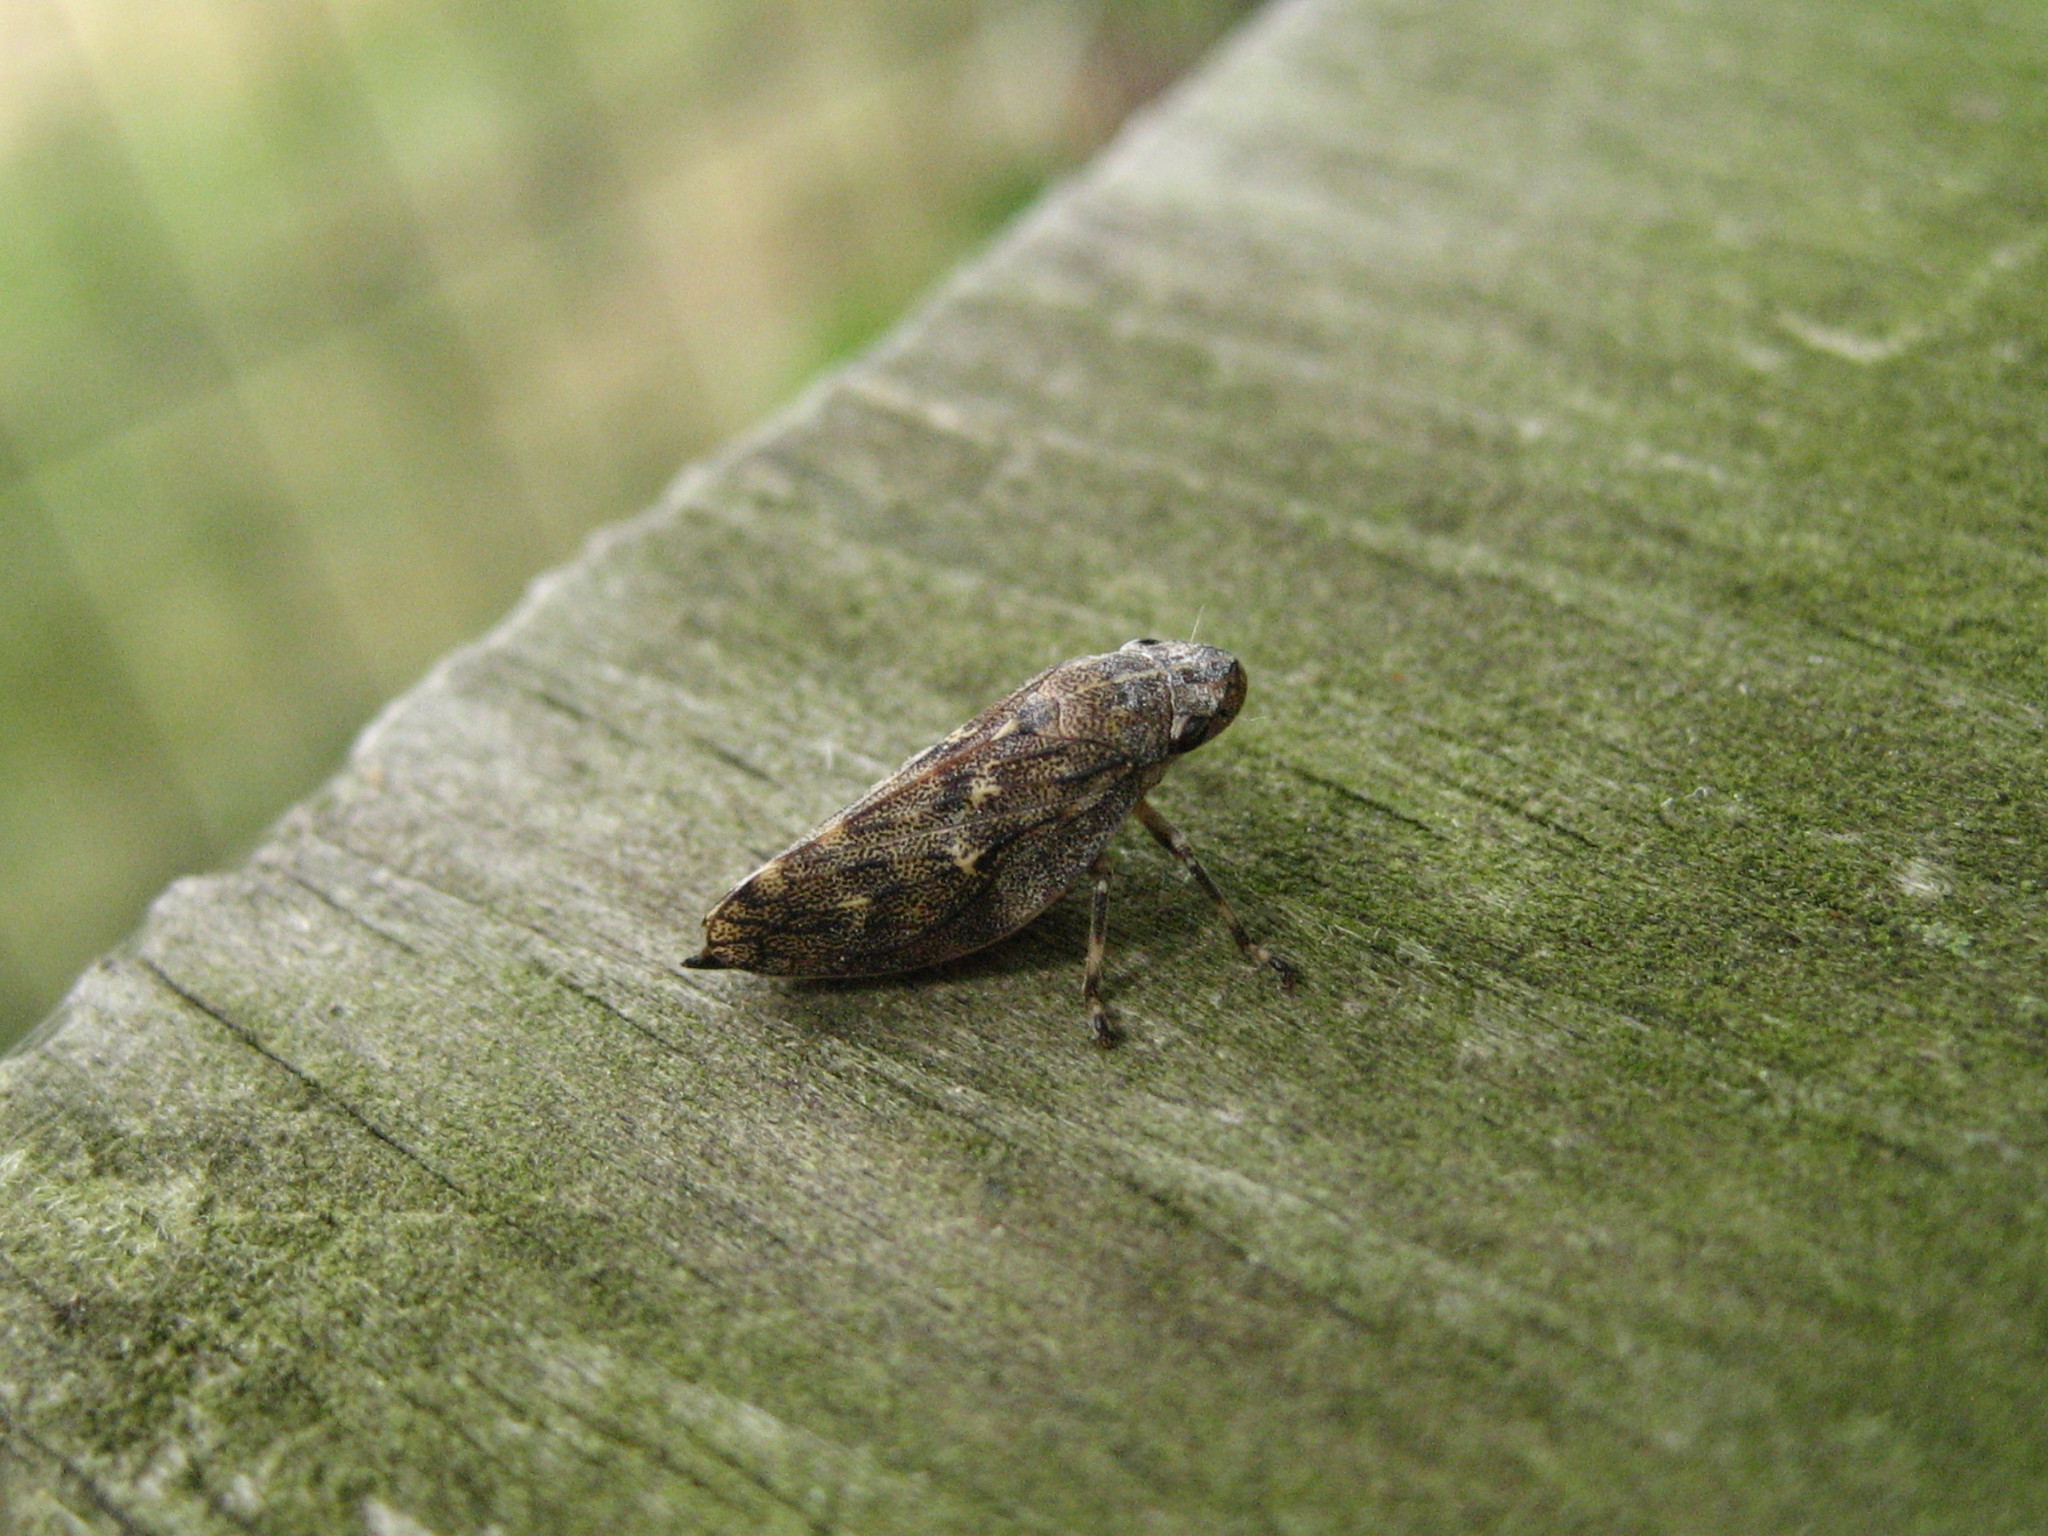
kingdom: Animalia
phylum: Arthropoda
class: Insecta
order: Hemiptera
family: Epipygidae
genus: Epipyga
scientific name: Epipyga cribrata
